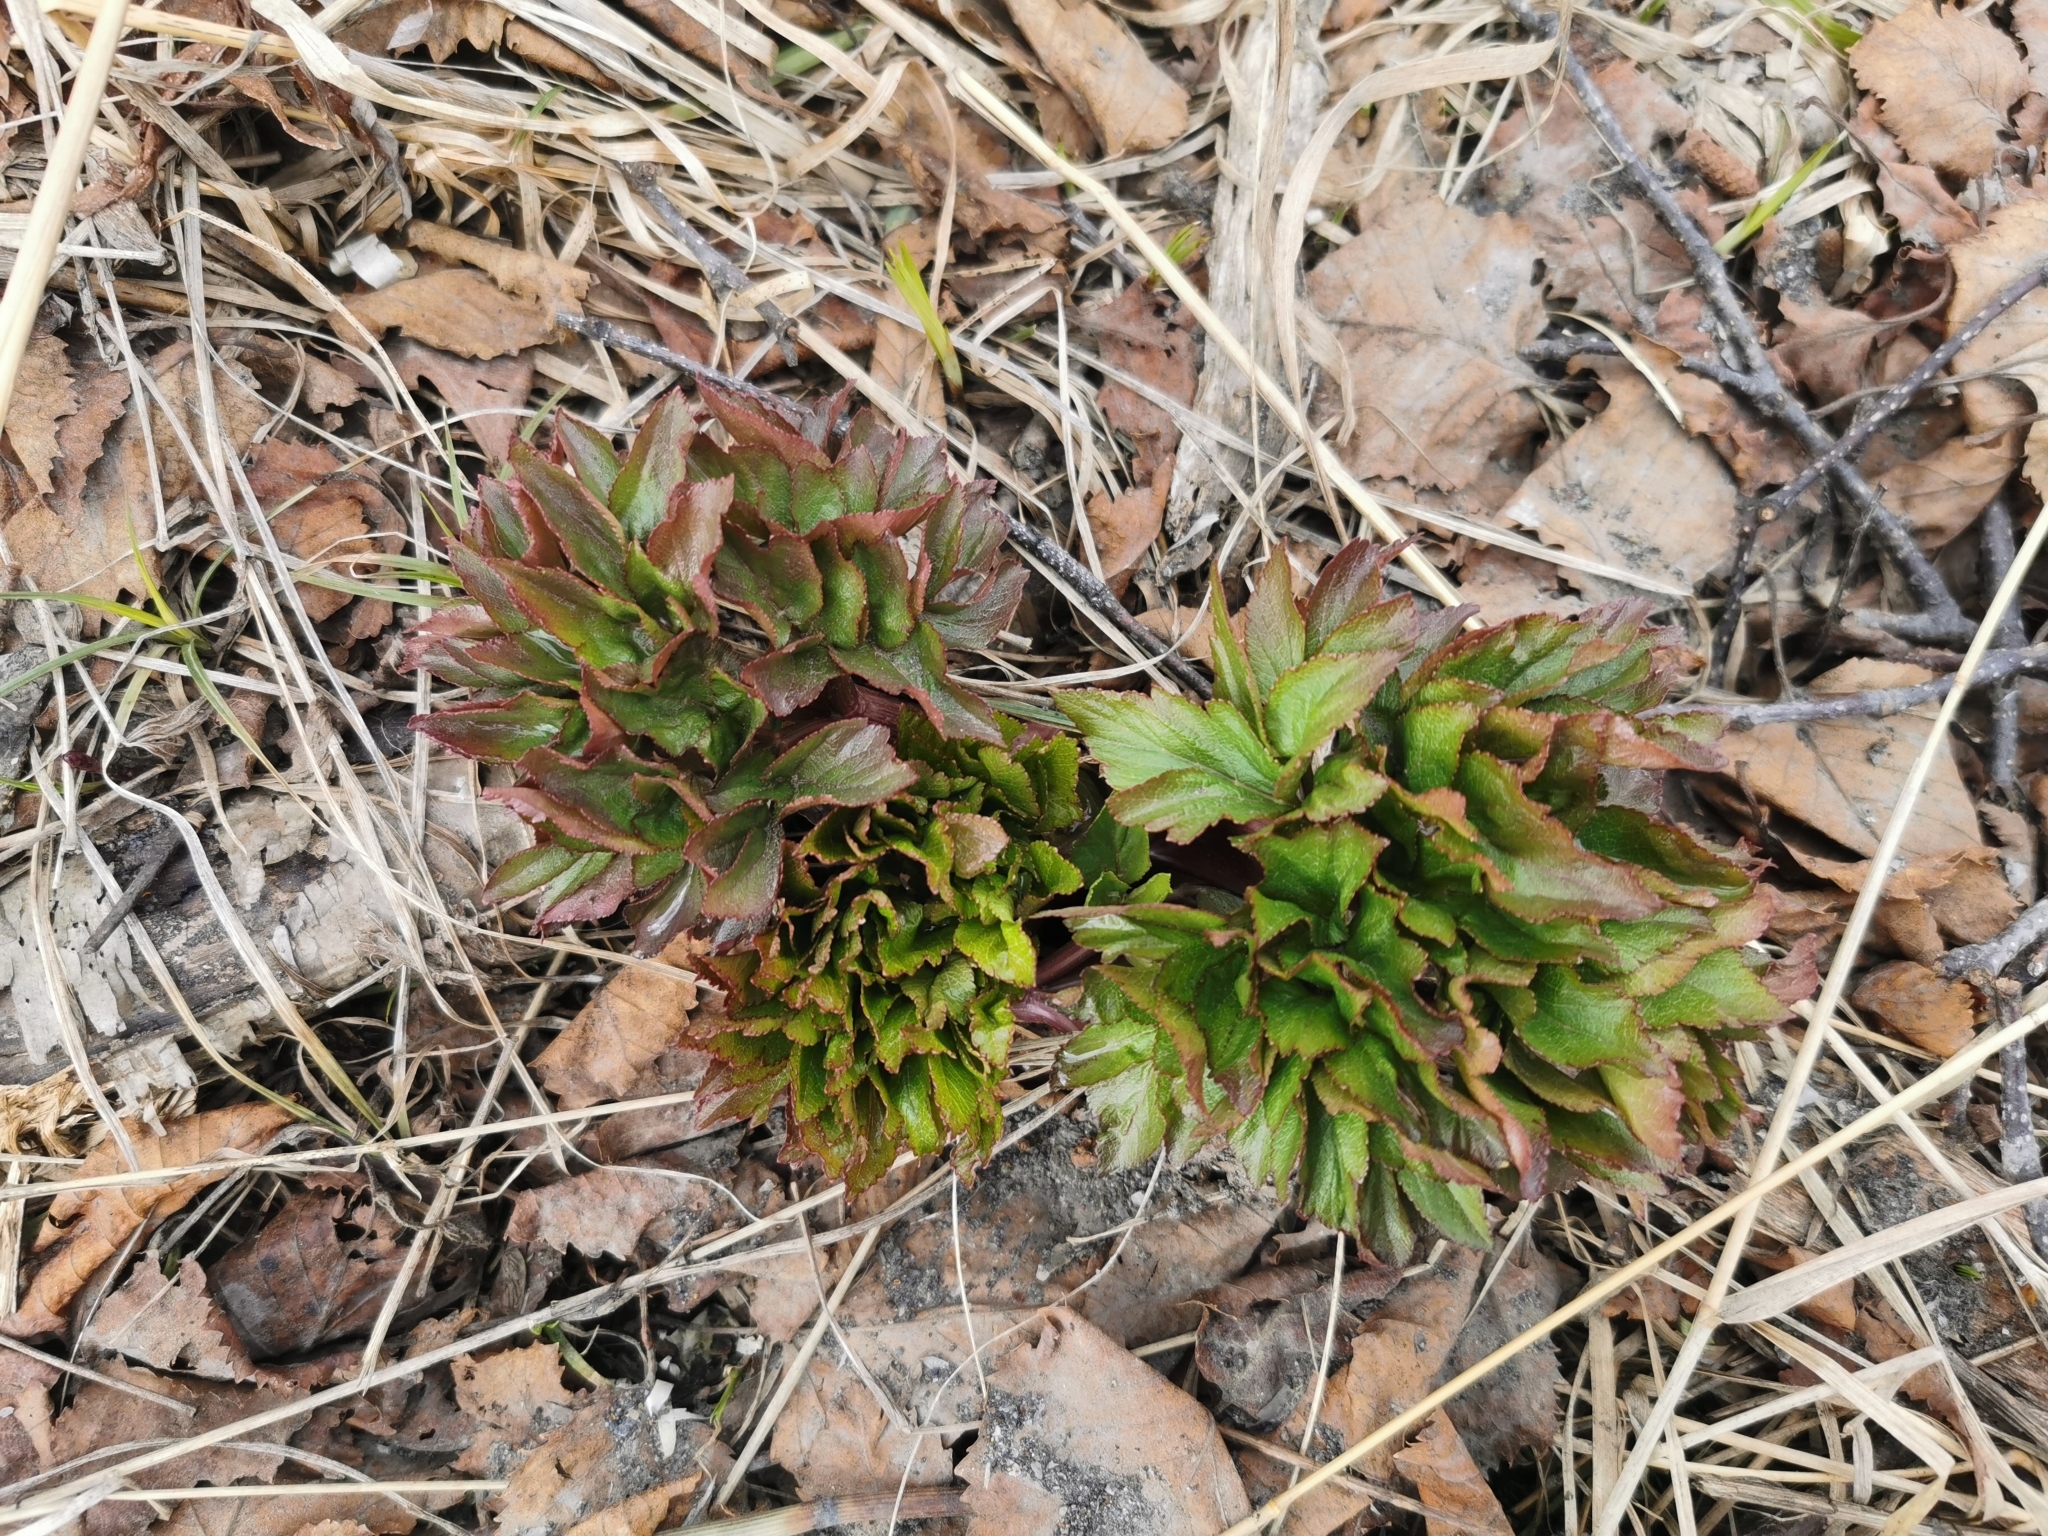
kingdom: Plantae
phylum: Tracheophyta
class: Magnoliopsida
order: Apiales
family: Apiaceae
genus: Angelica
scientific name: Angelica gmelinii
